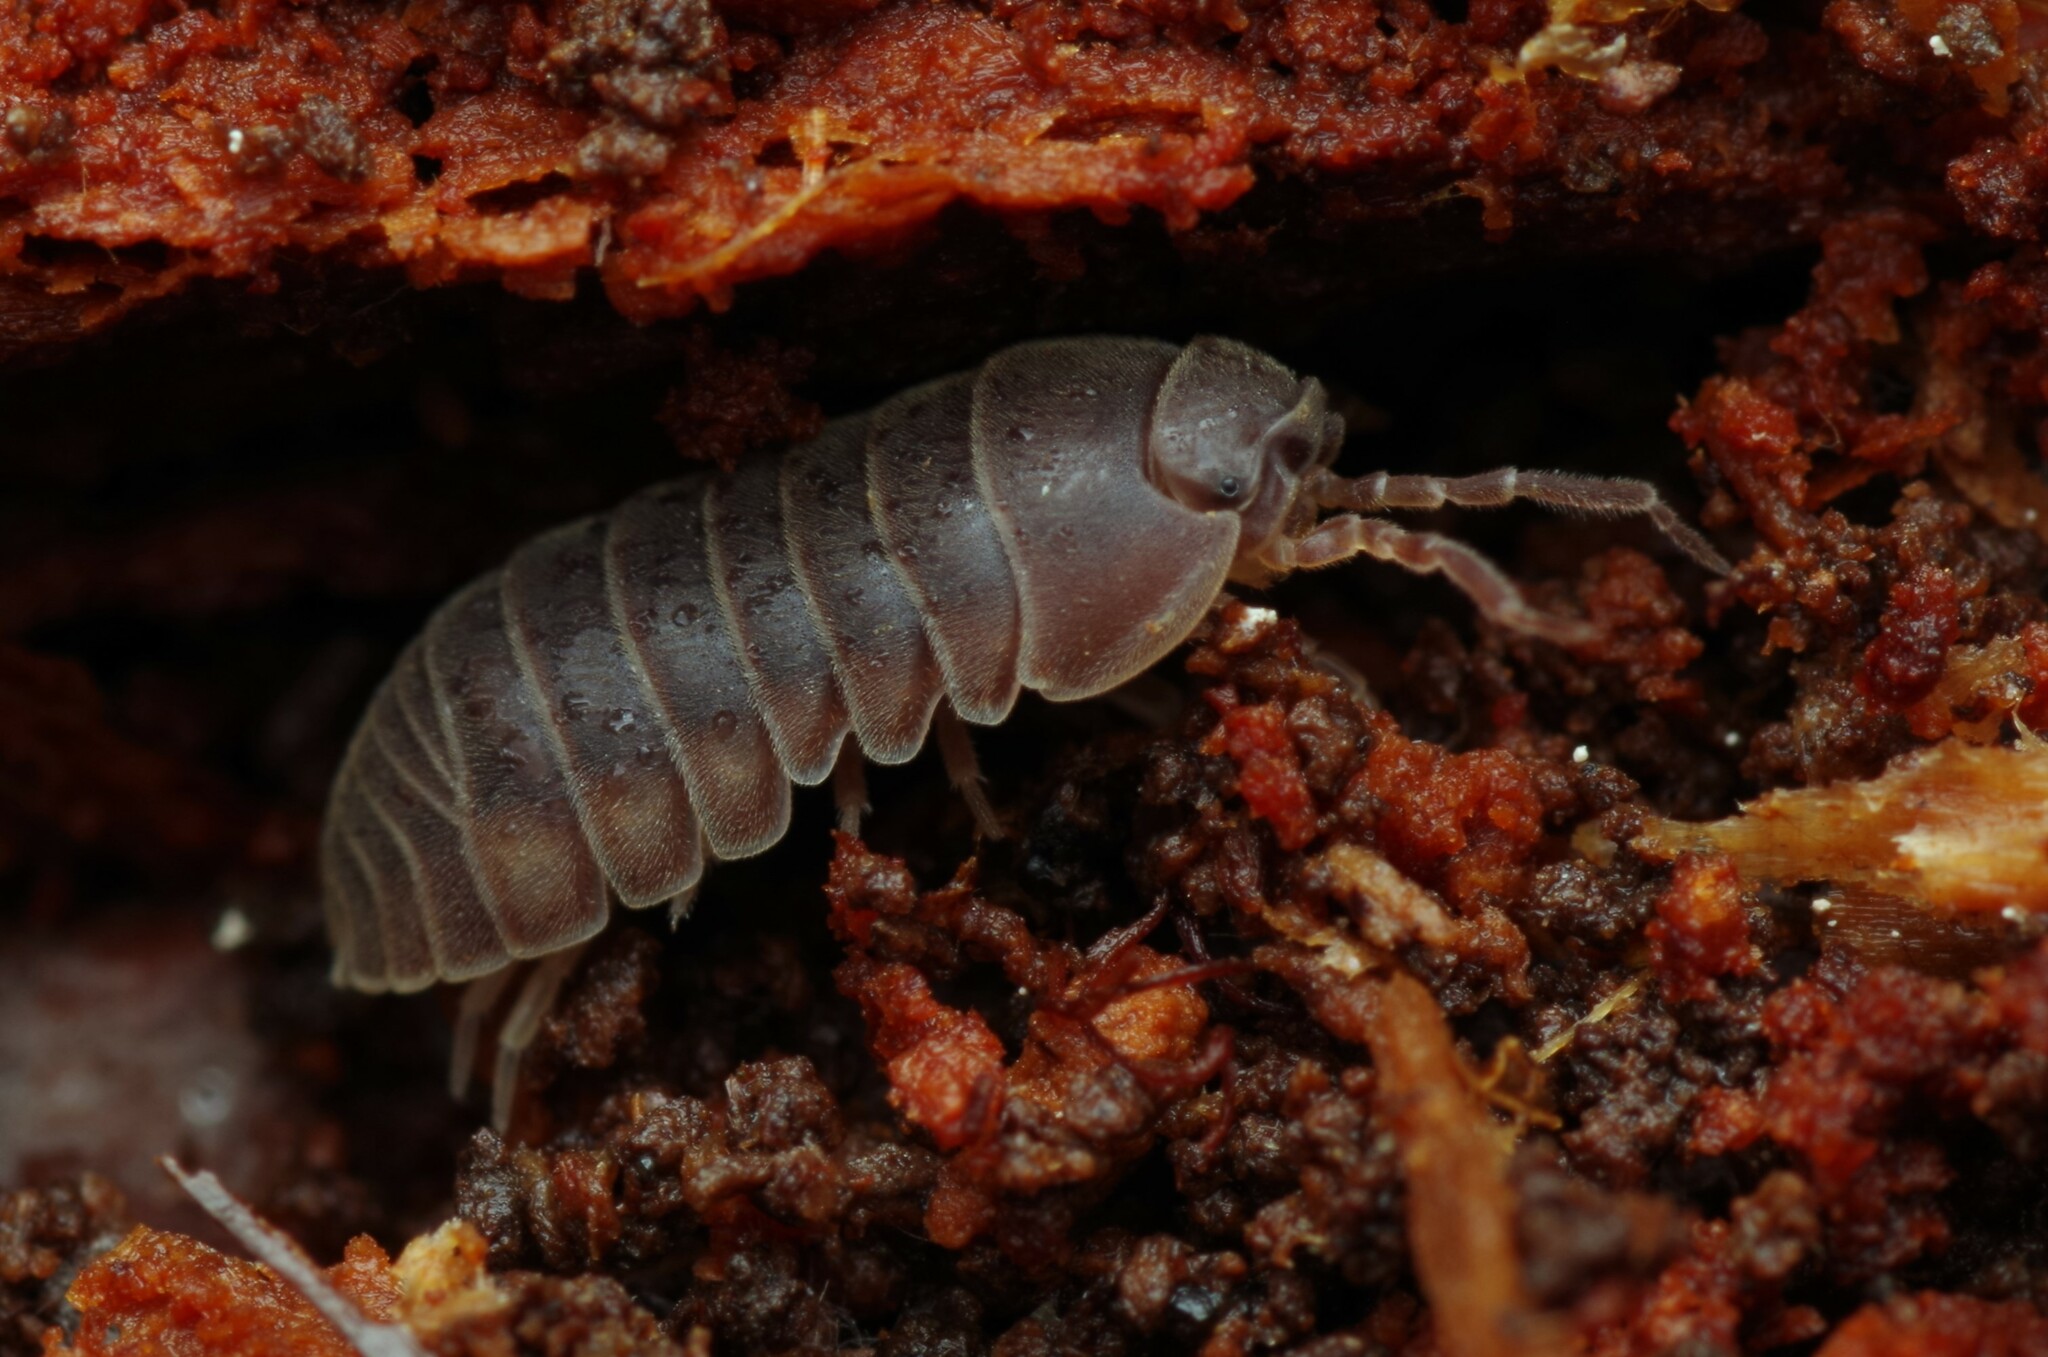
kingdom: Animalia
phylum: Arthropoda
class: Malacostraca
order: Isopoda
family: Armadillidiidae
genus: Eluma
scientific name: Eluma caelata
